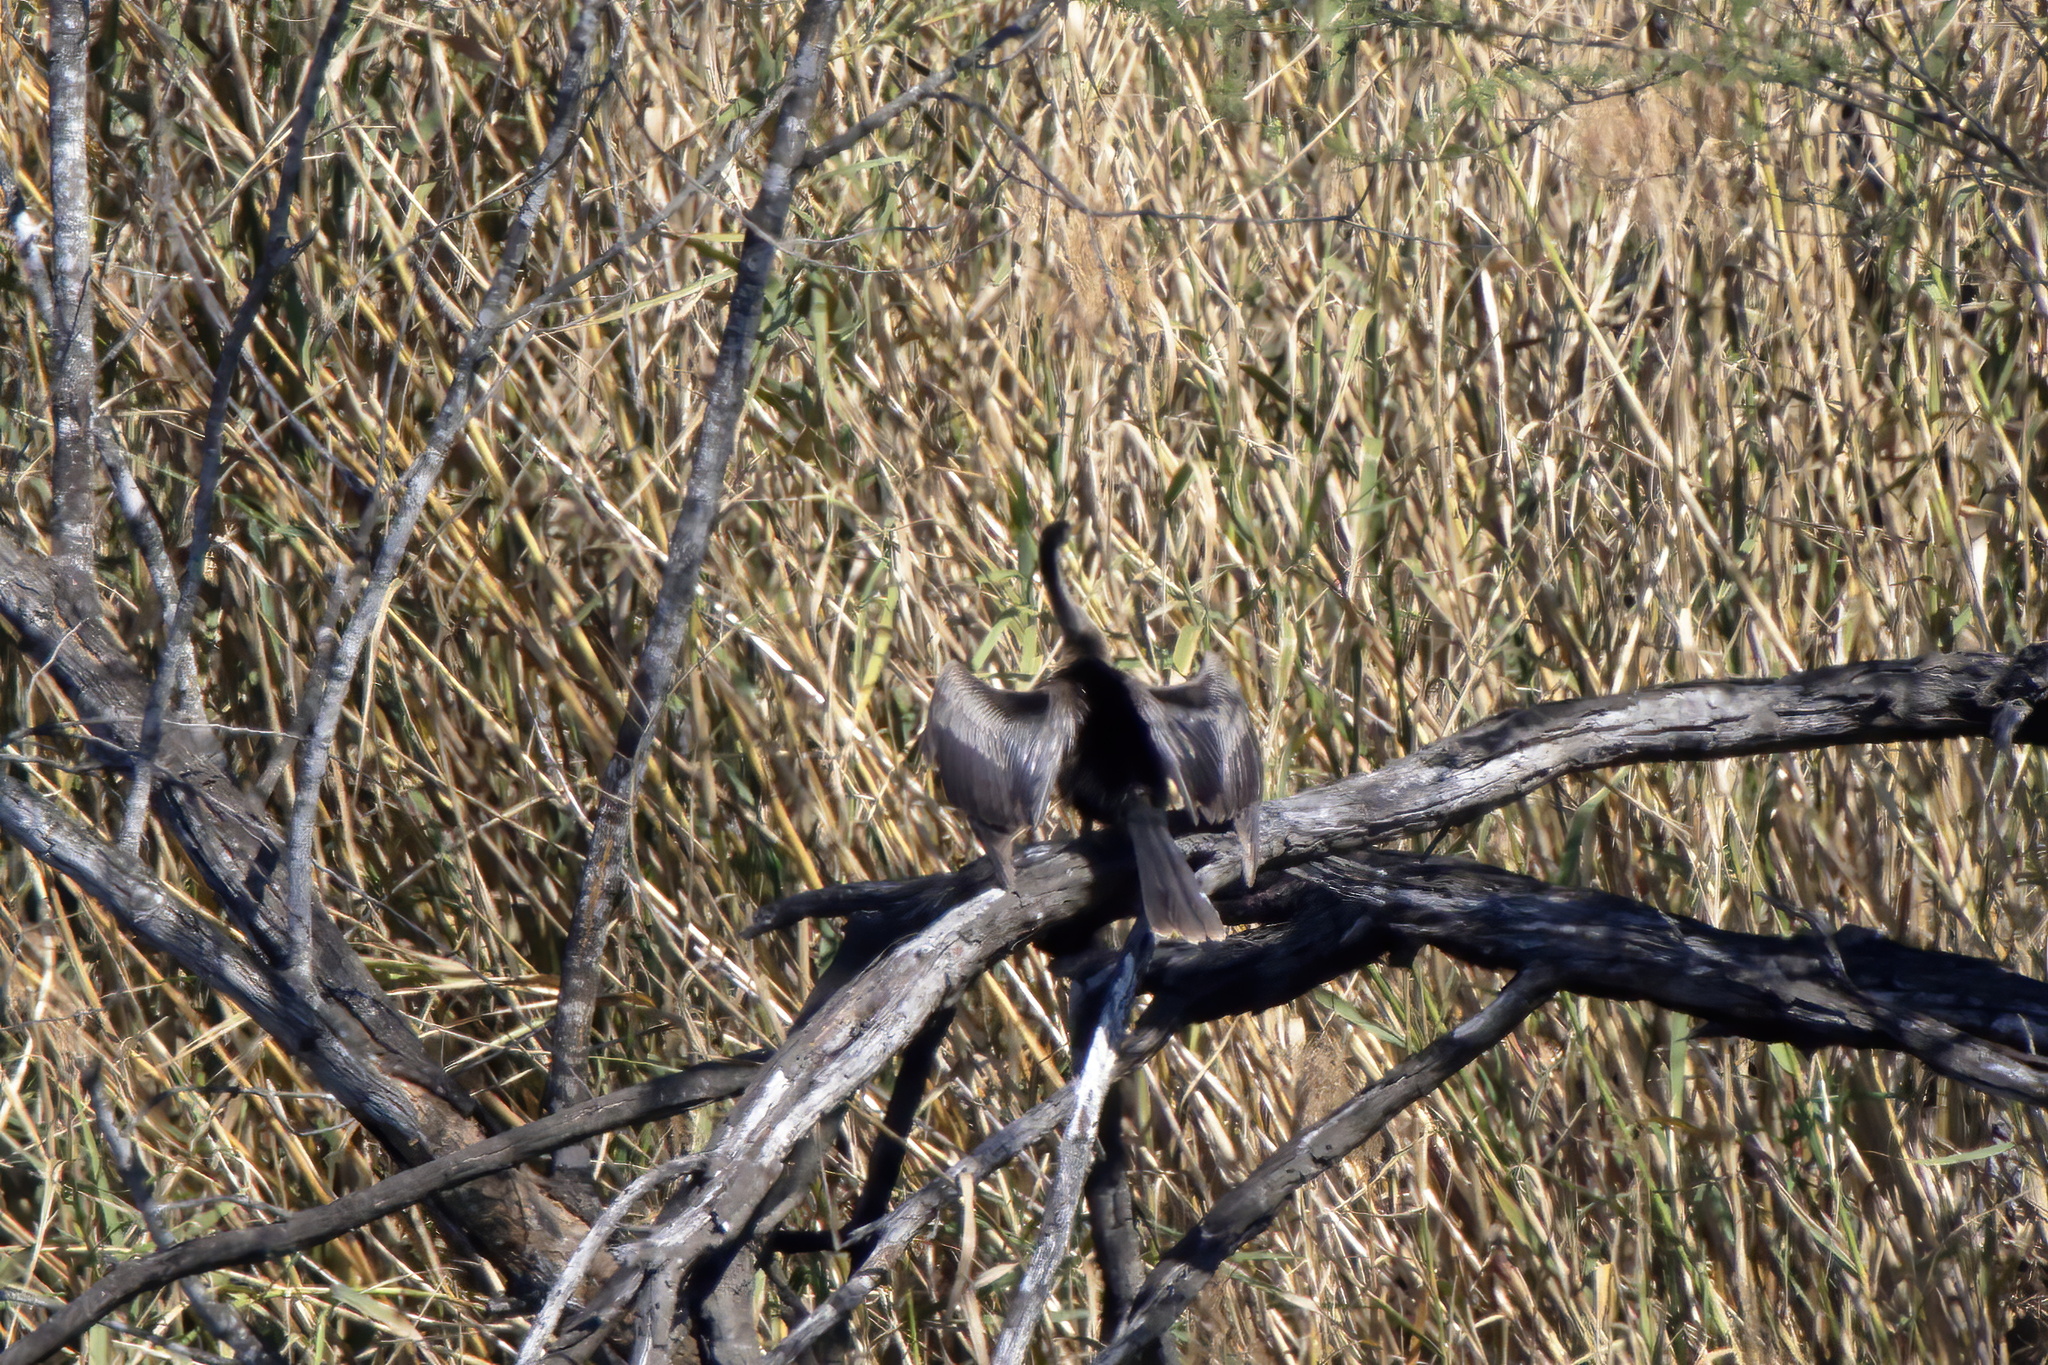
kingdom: Animalia
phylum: Chordata
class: Aves
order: Suliformes
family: Anhingidae
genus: Anhinga
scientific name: Anhinga anhinga
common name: Anhinga
